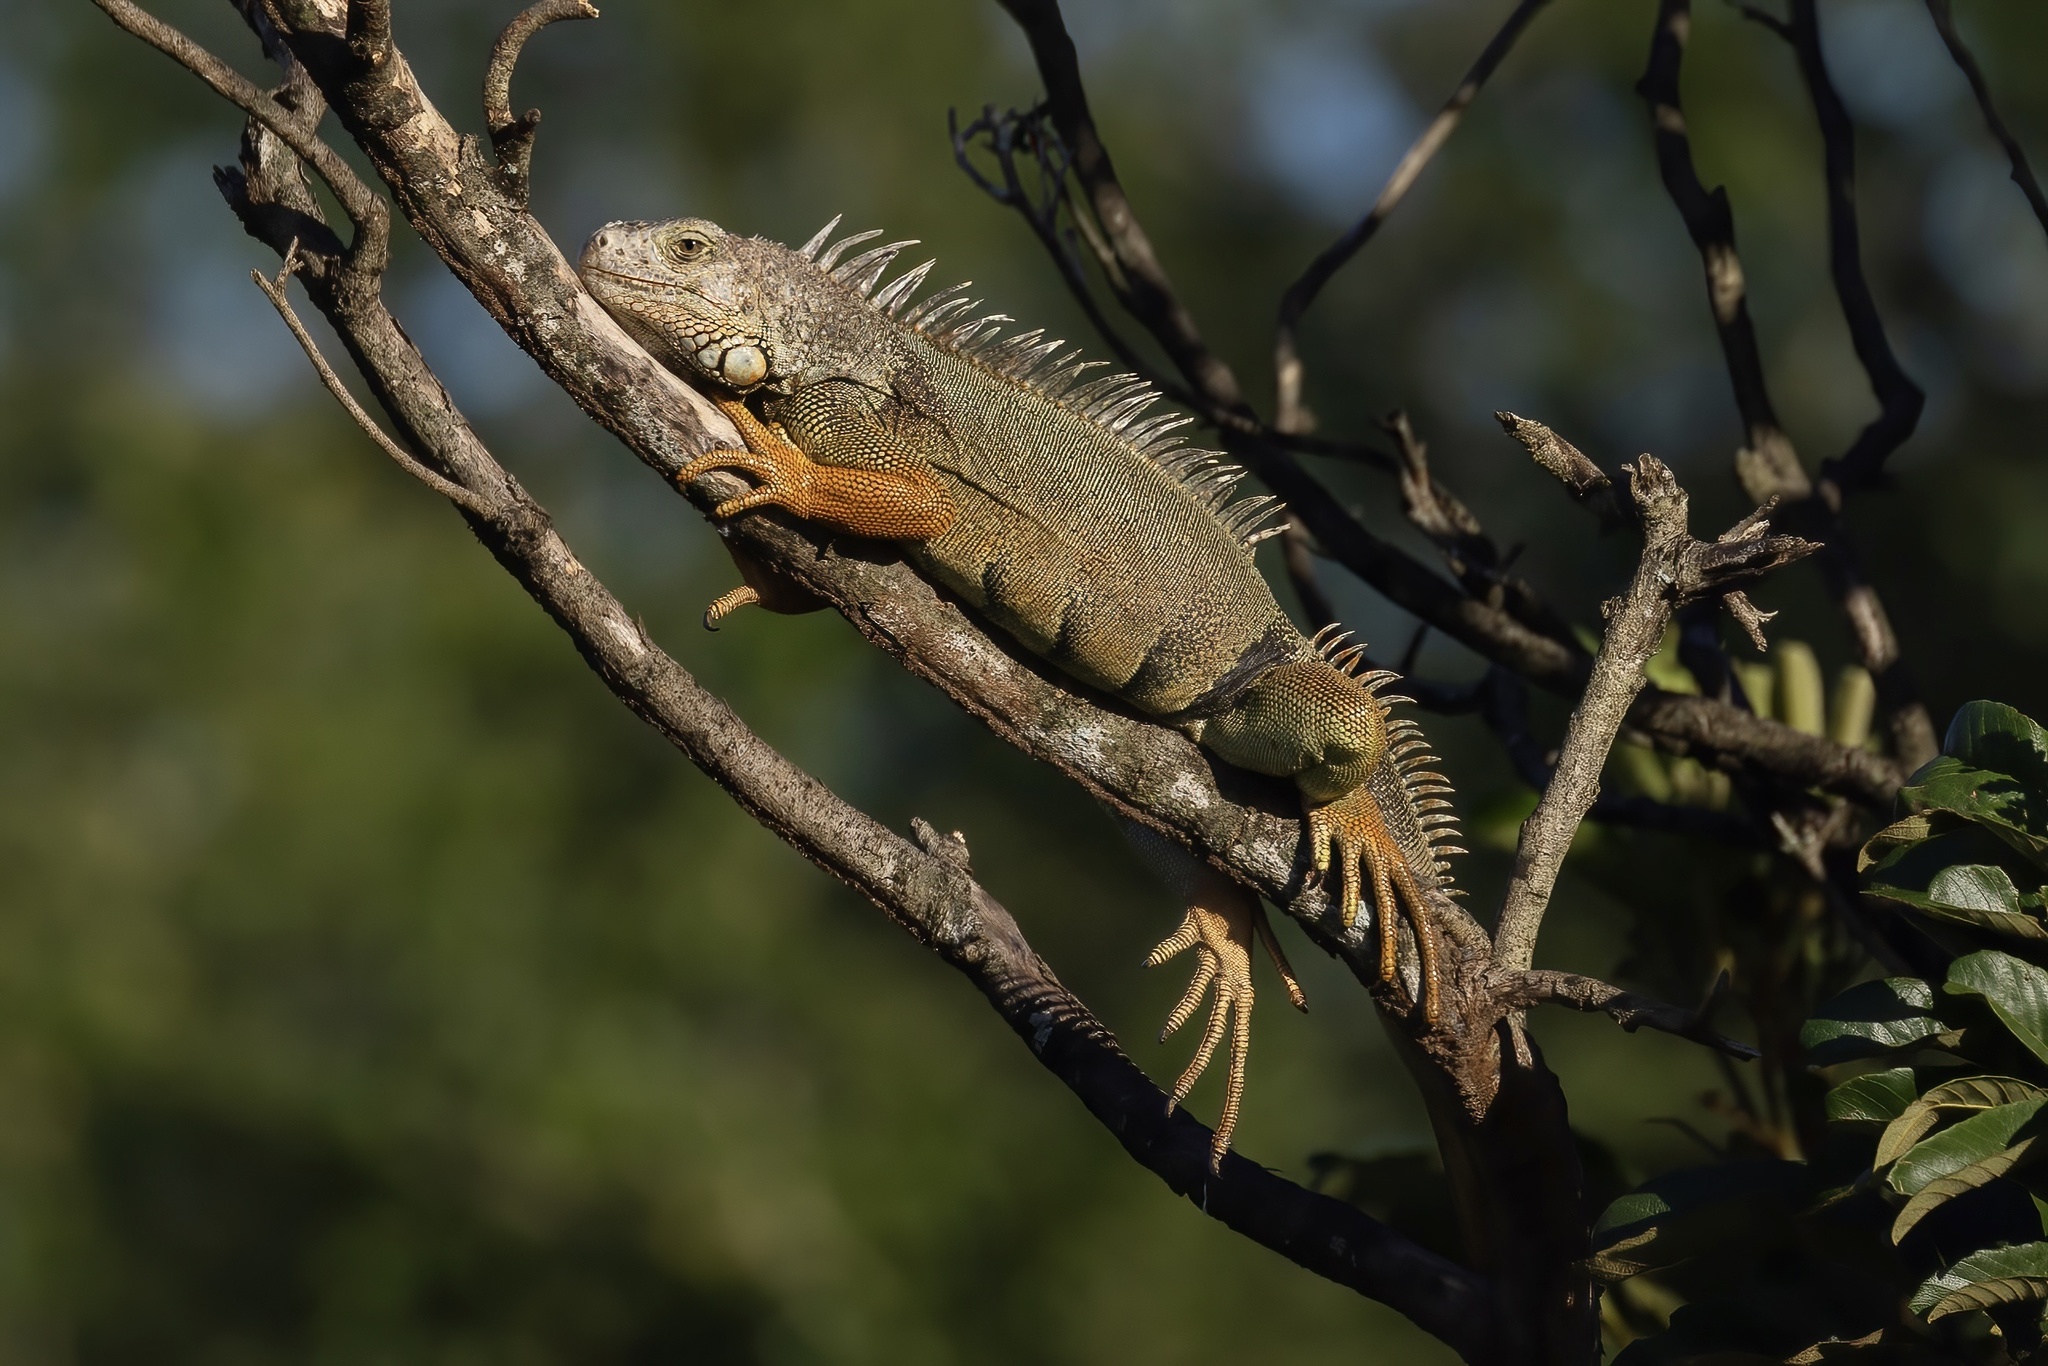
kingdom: Animalia
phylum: Chordata
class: Squamata
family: Iguanidae
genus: Iguana
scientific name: Iguana iguana
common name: Green iguana
